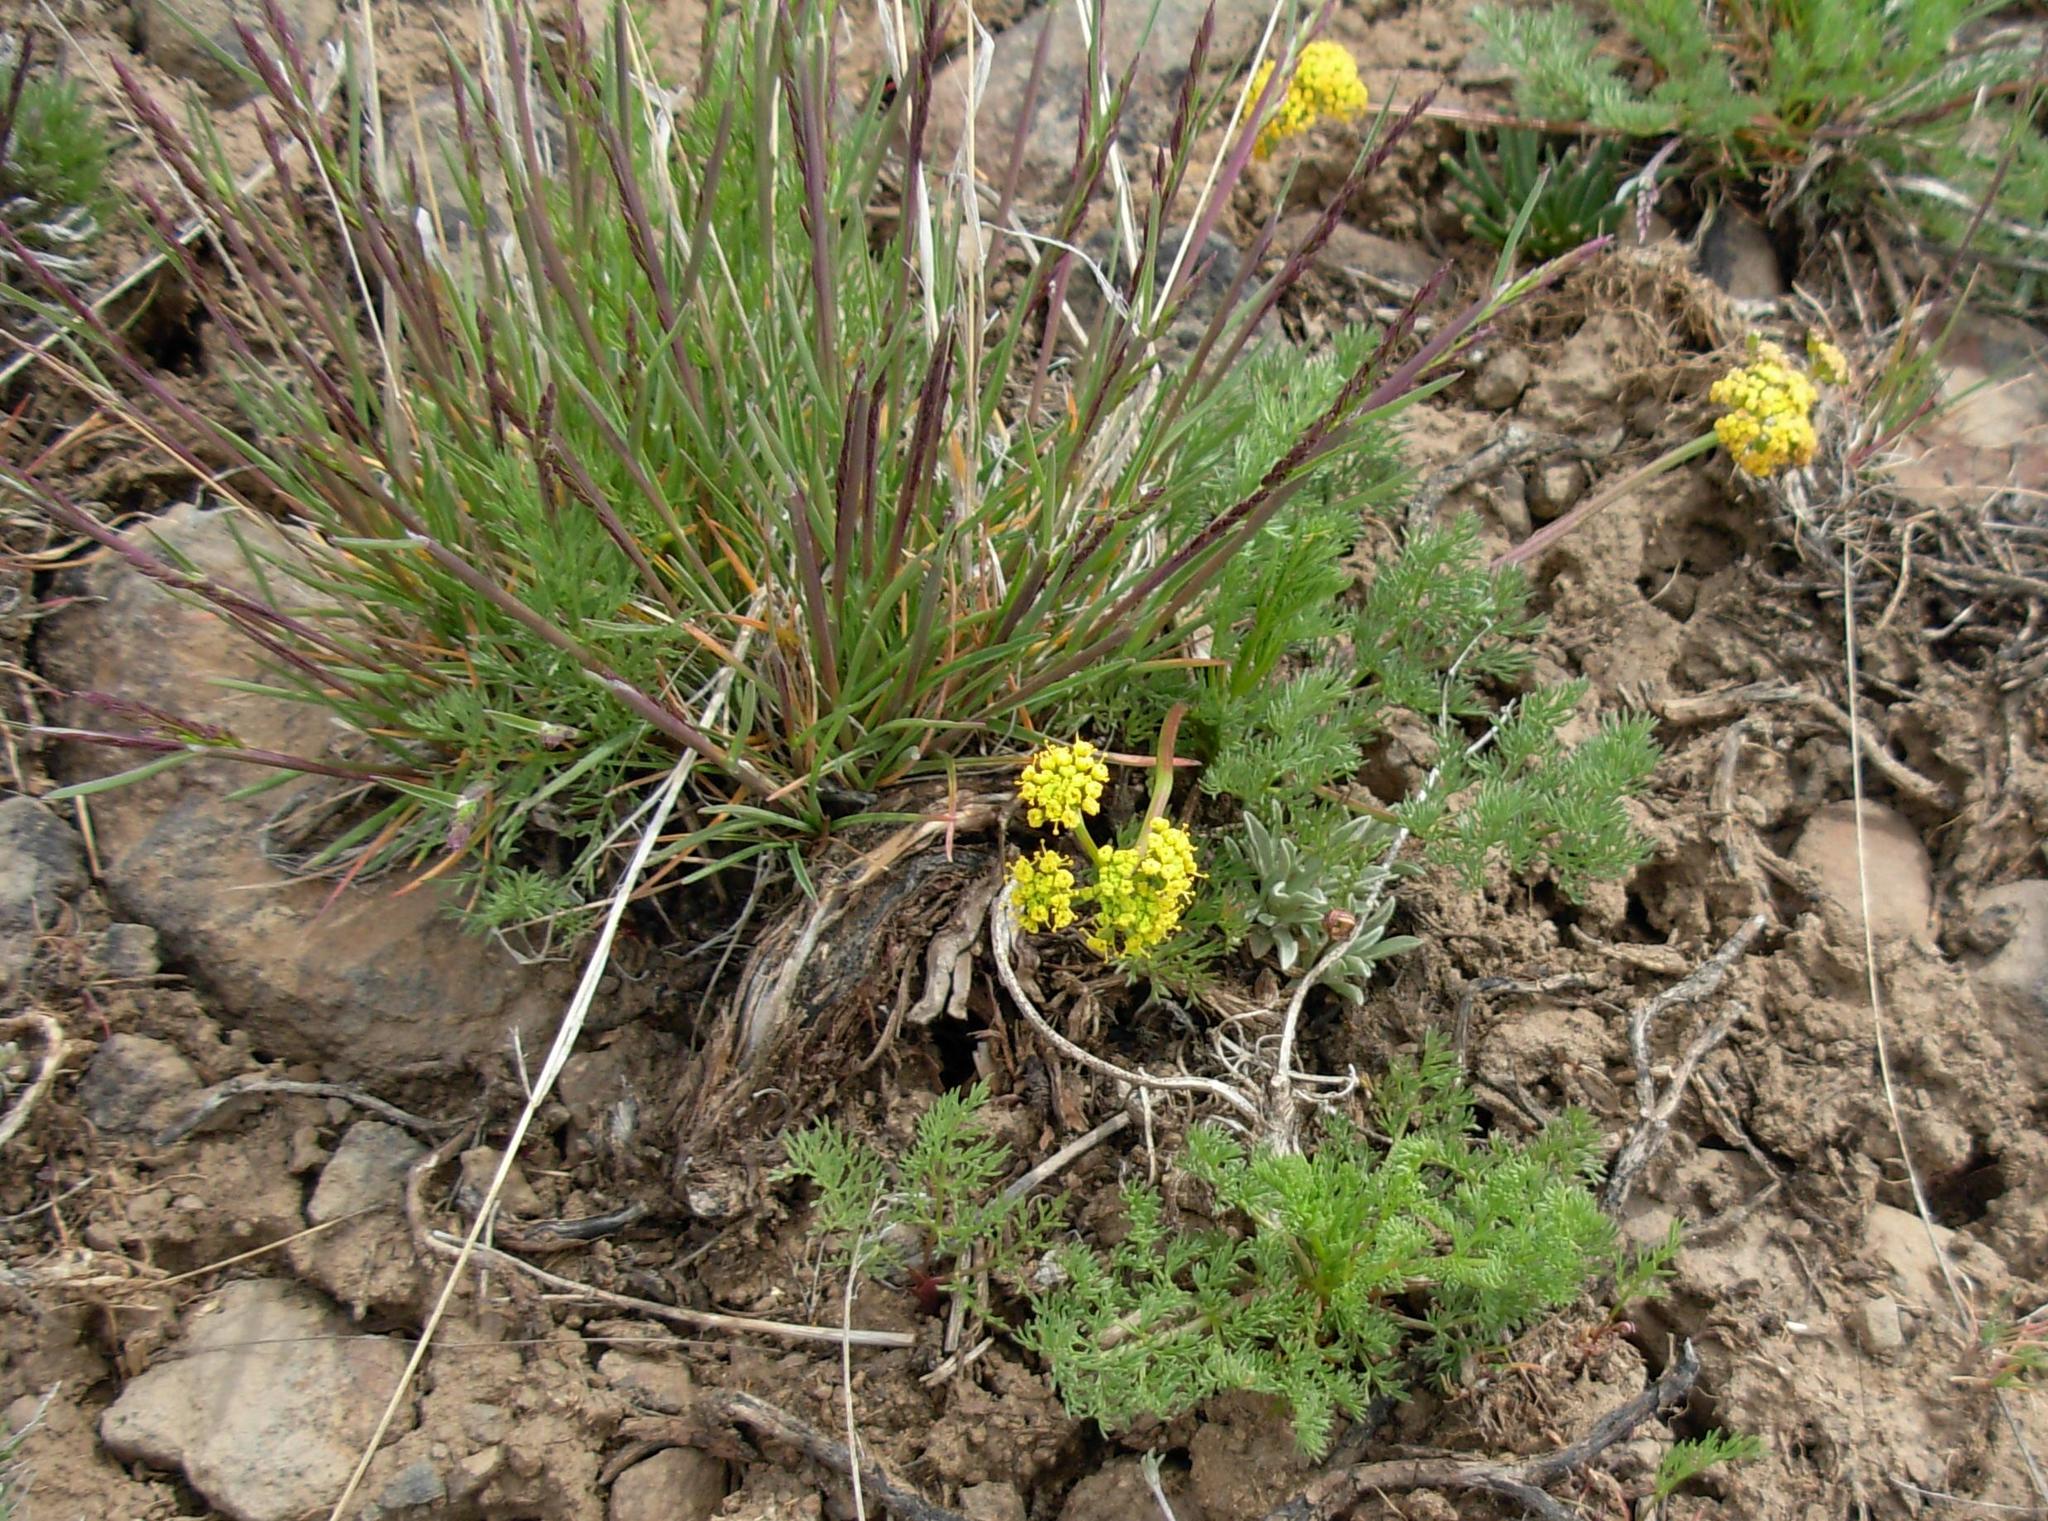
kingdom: Plantae
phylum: Tracheophyta
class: Magnoliopsida
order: Apiales
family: Apiaceae
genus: Lomatium
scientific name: Lomatium quintuplex
